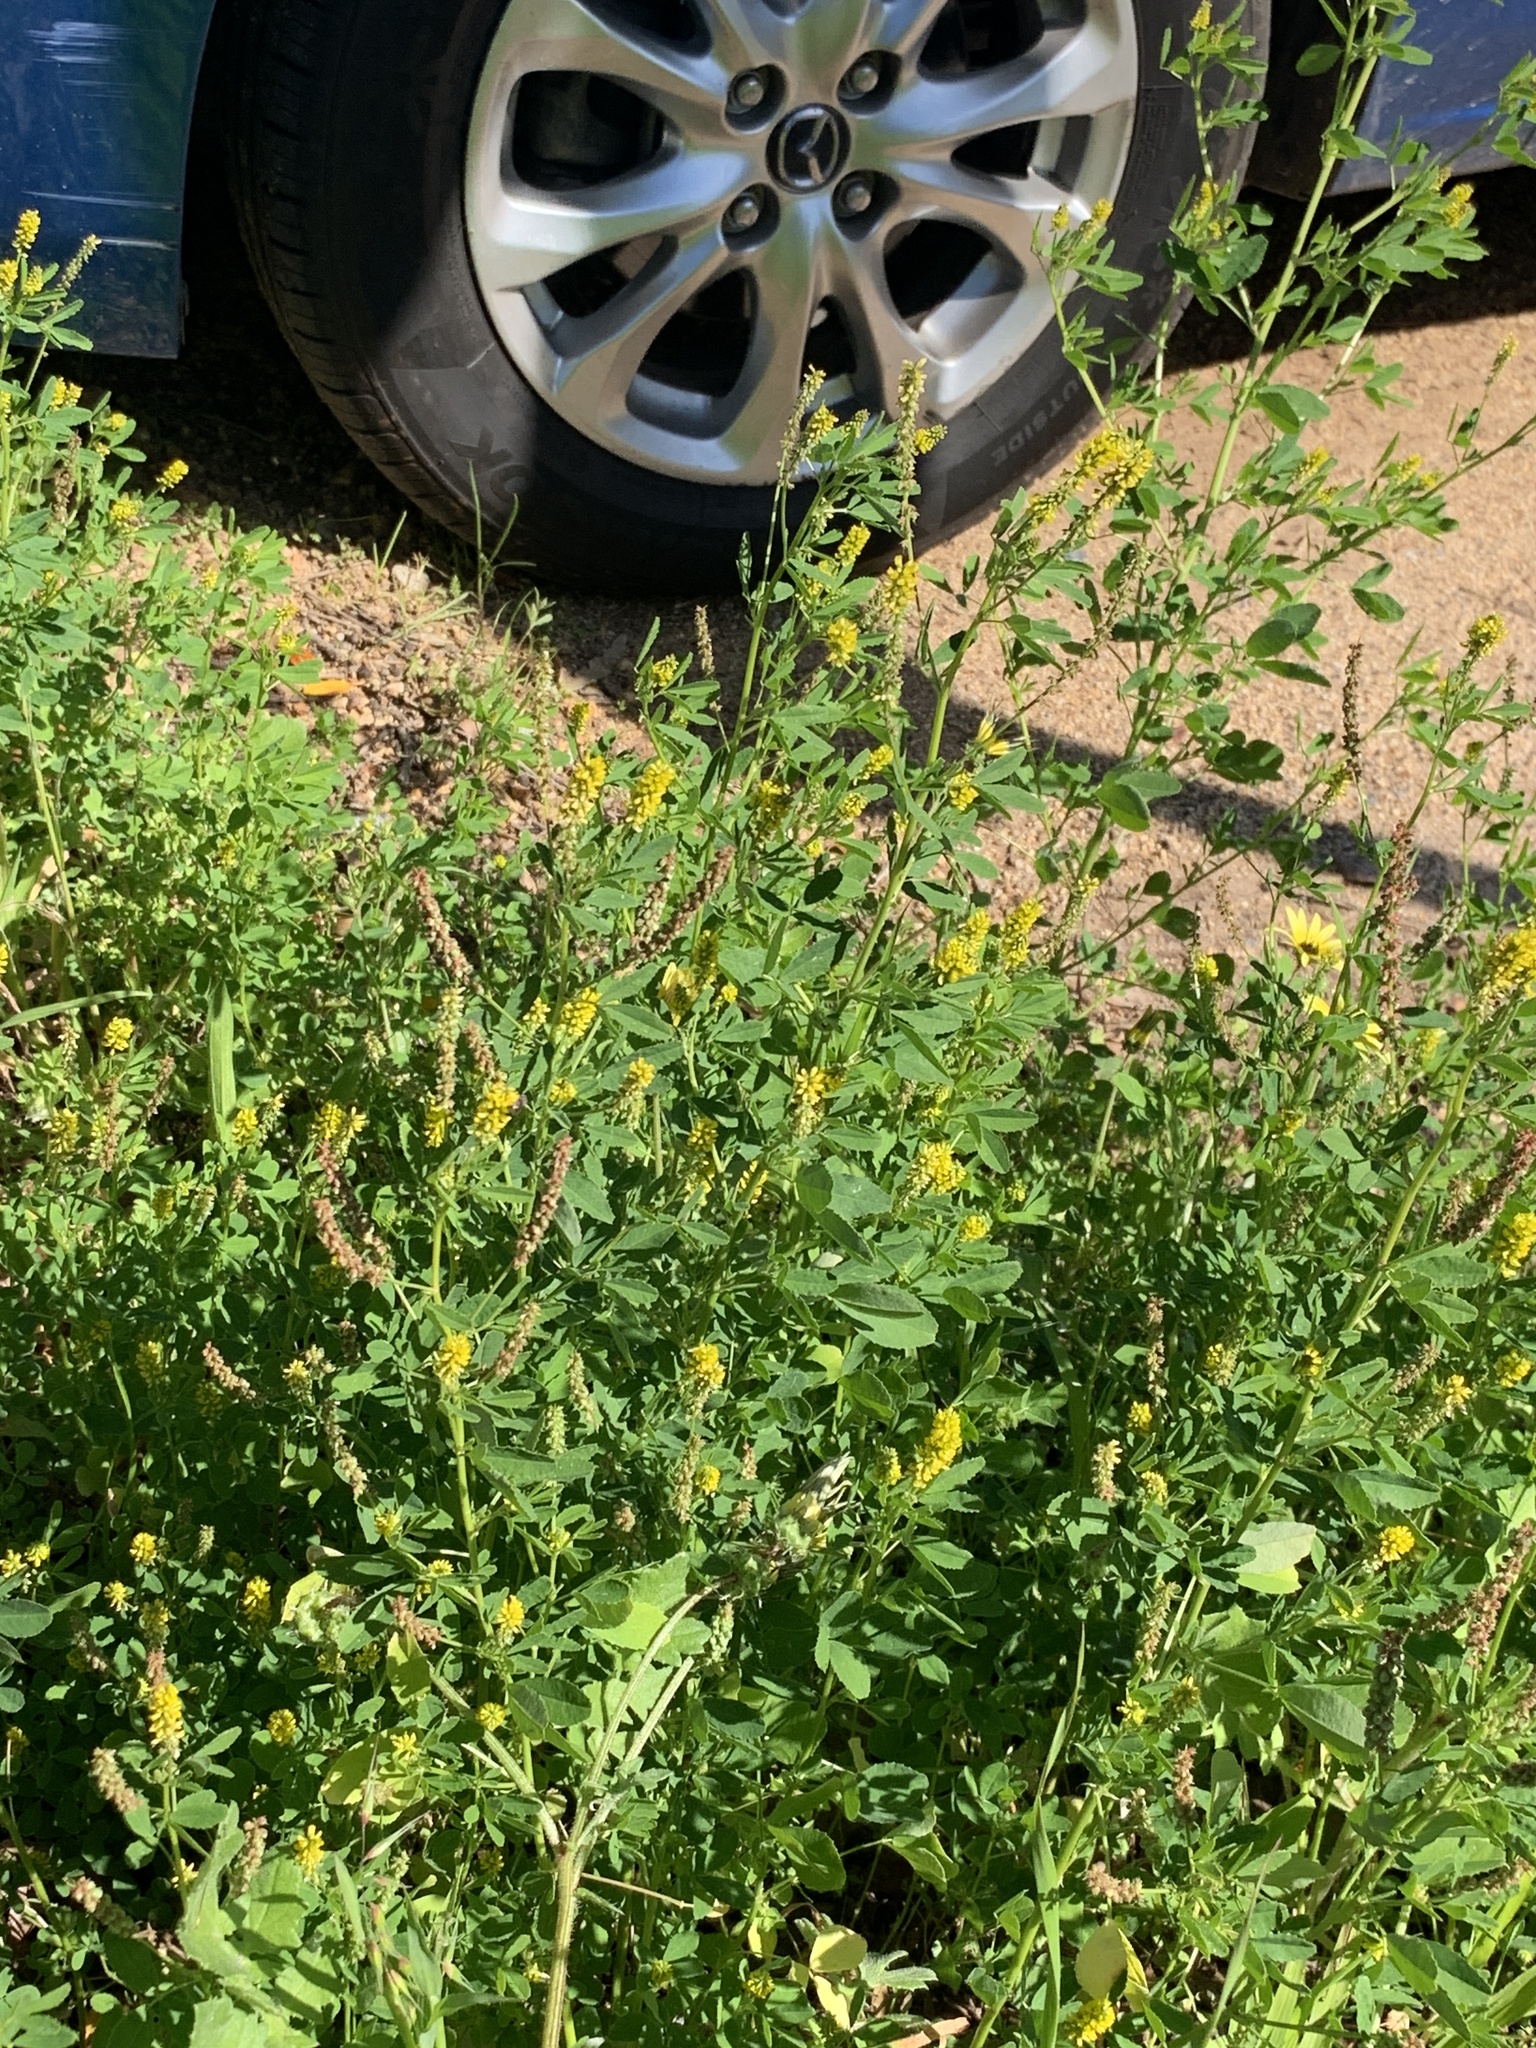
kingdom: Plantae
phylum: Tracheophyta
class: Magnoliopsida
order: Fabales
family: Fabaceae
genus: Melilotus
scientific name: Melilotus indicus
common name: Small melilot
